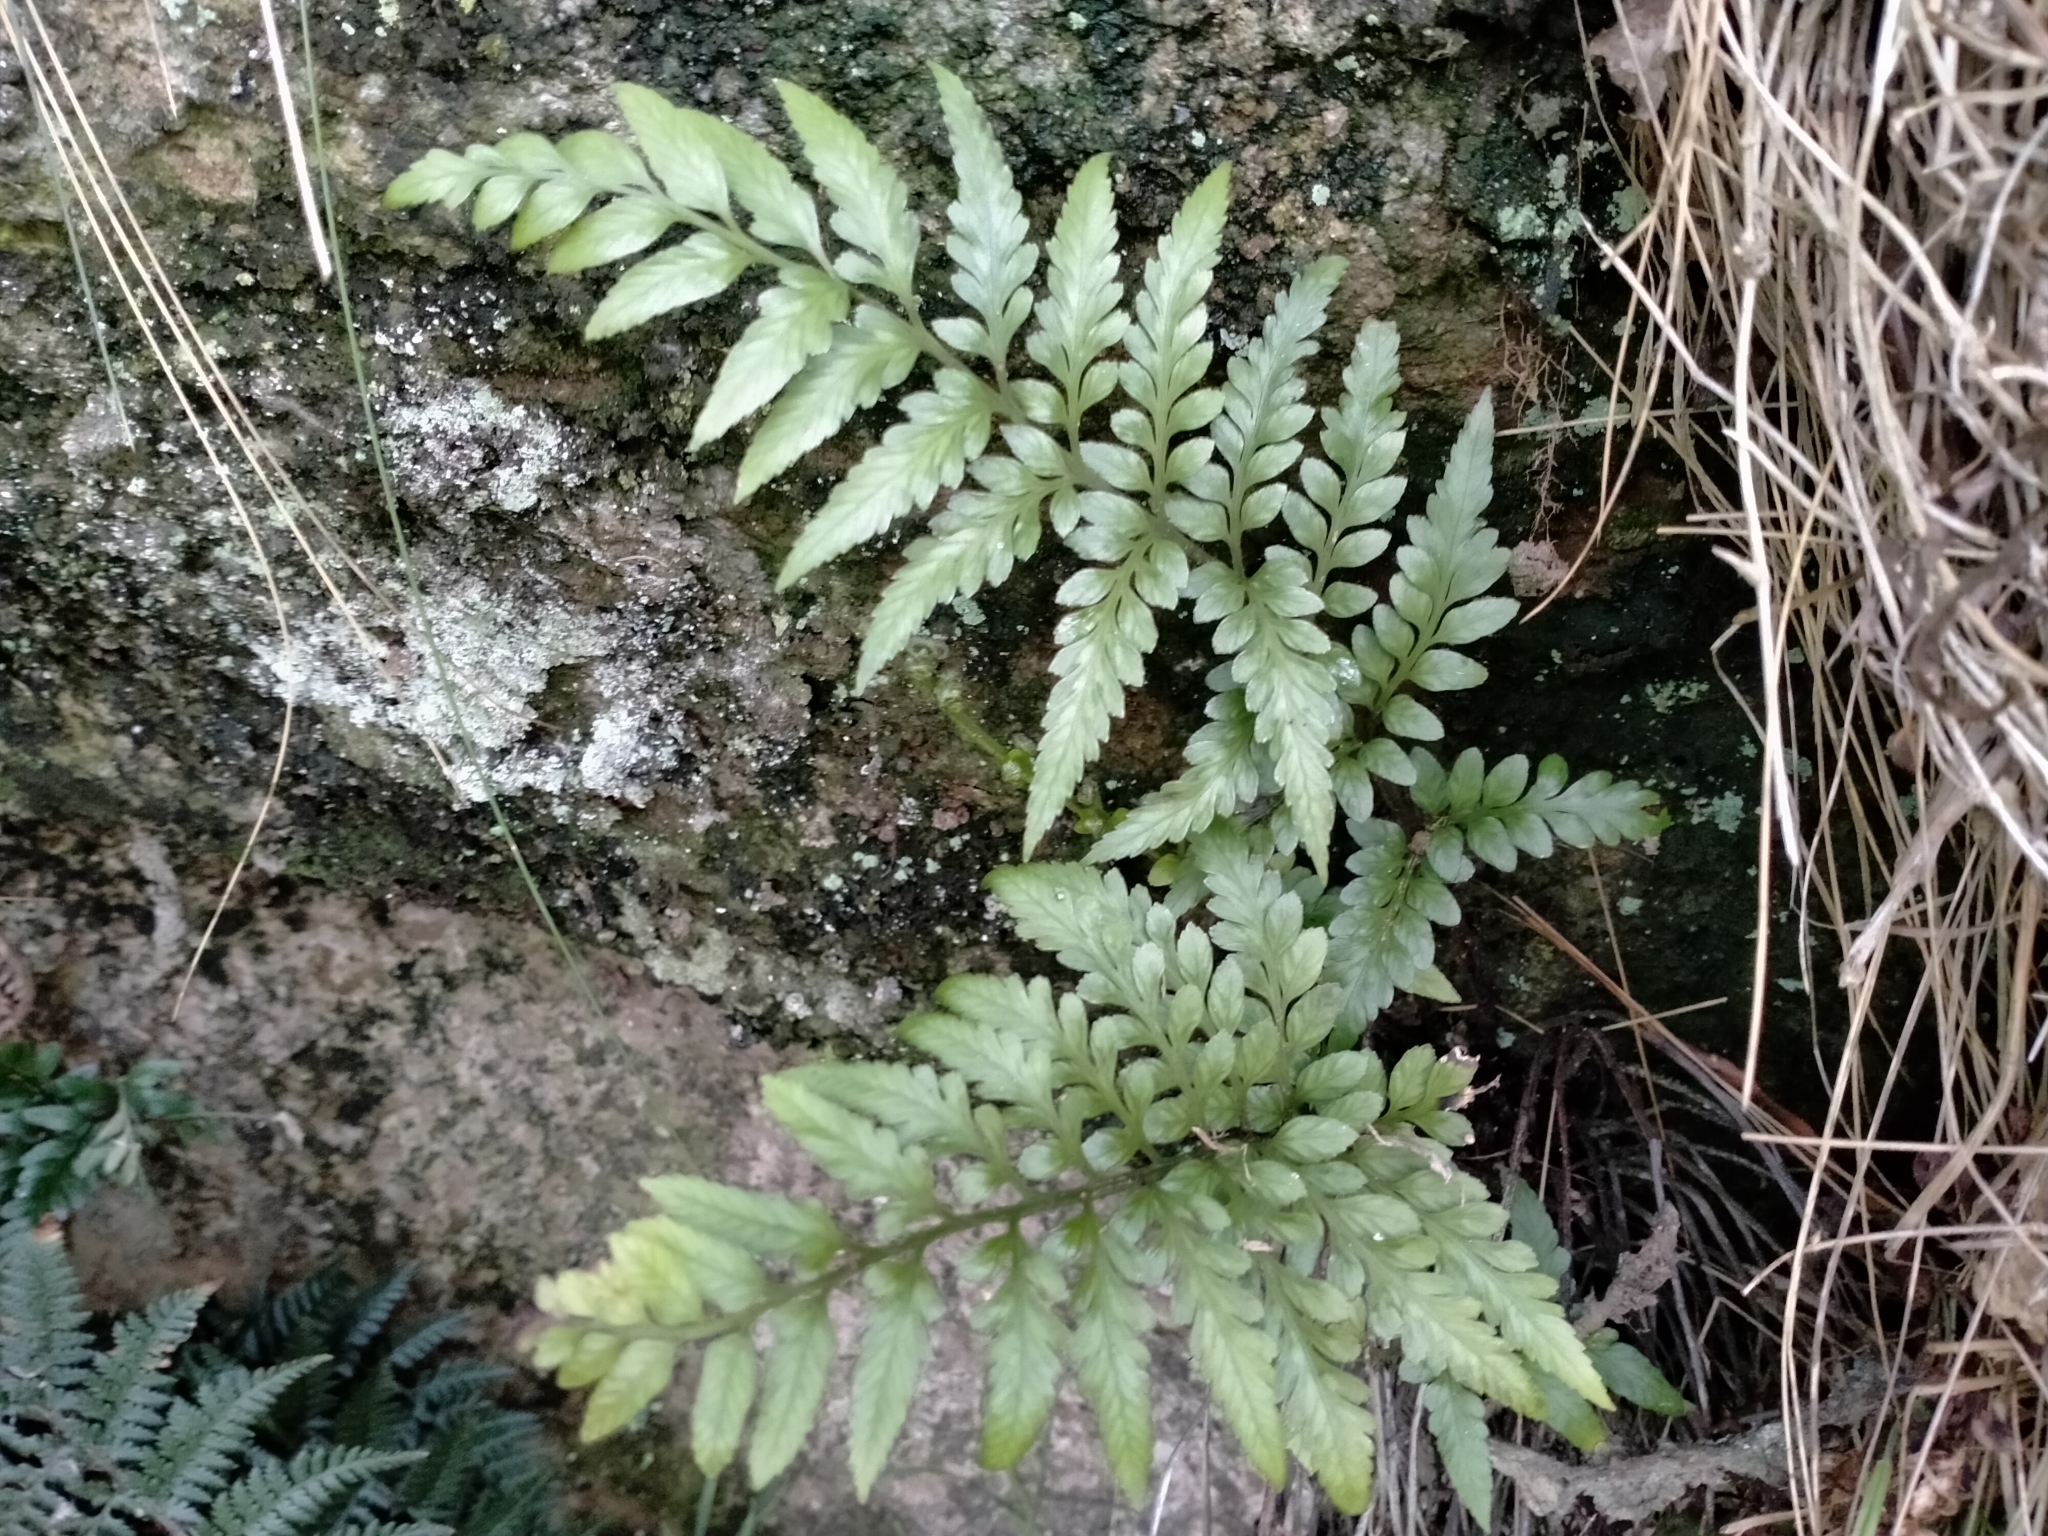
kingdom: Plantae
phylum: Tracheophyta
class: Polypodiopsida
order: Polypodiales
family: Aspleniaceae
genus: Asplenium
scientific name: Asplenium lyallii
